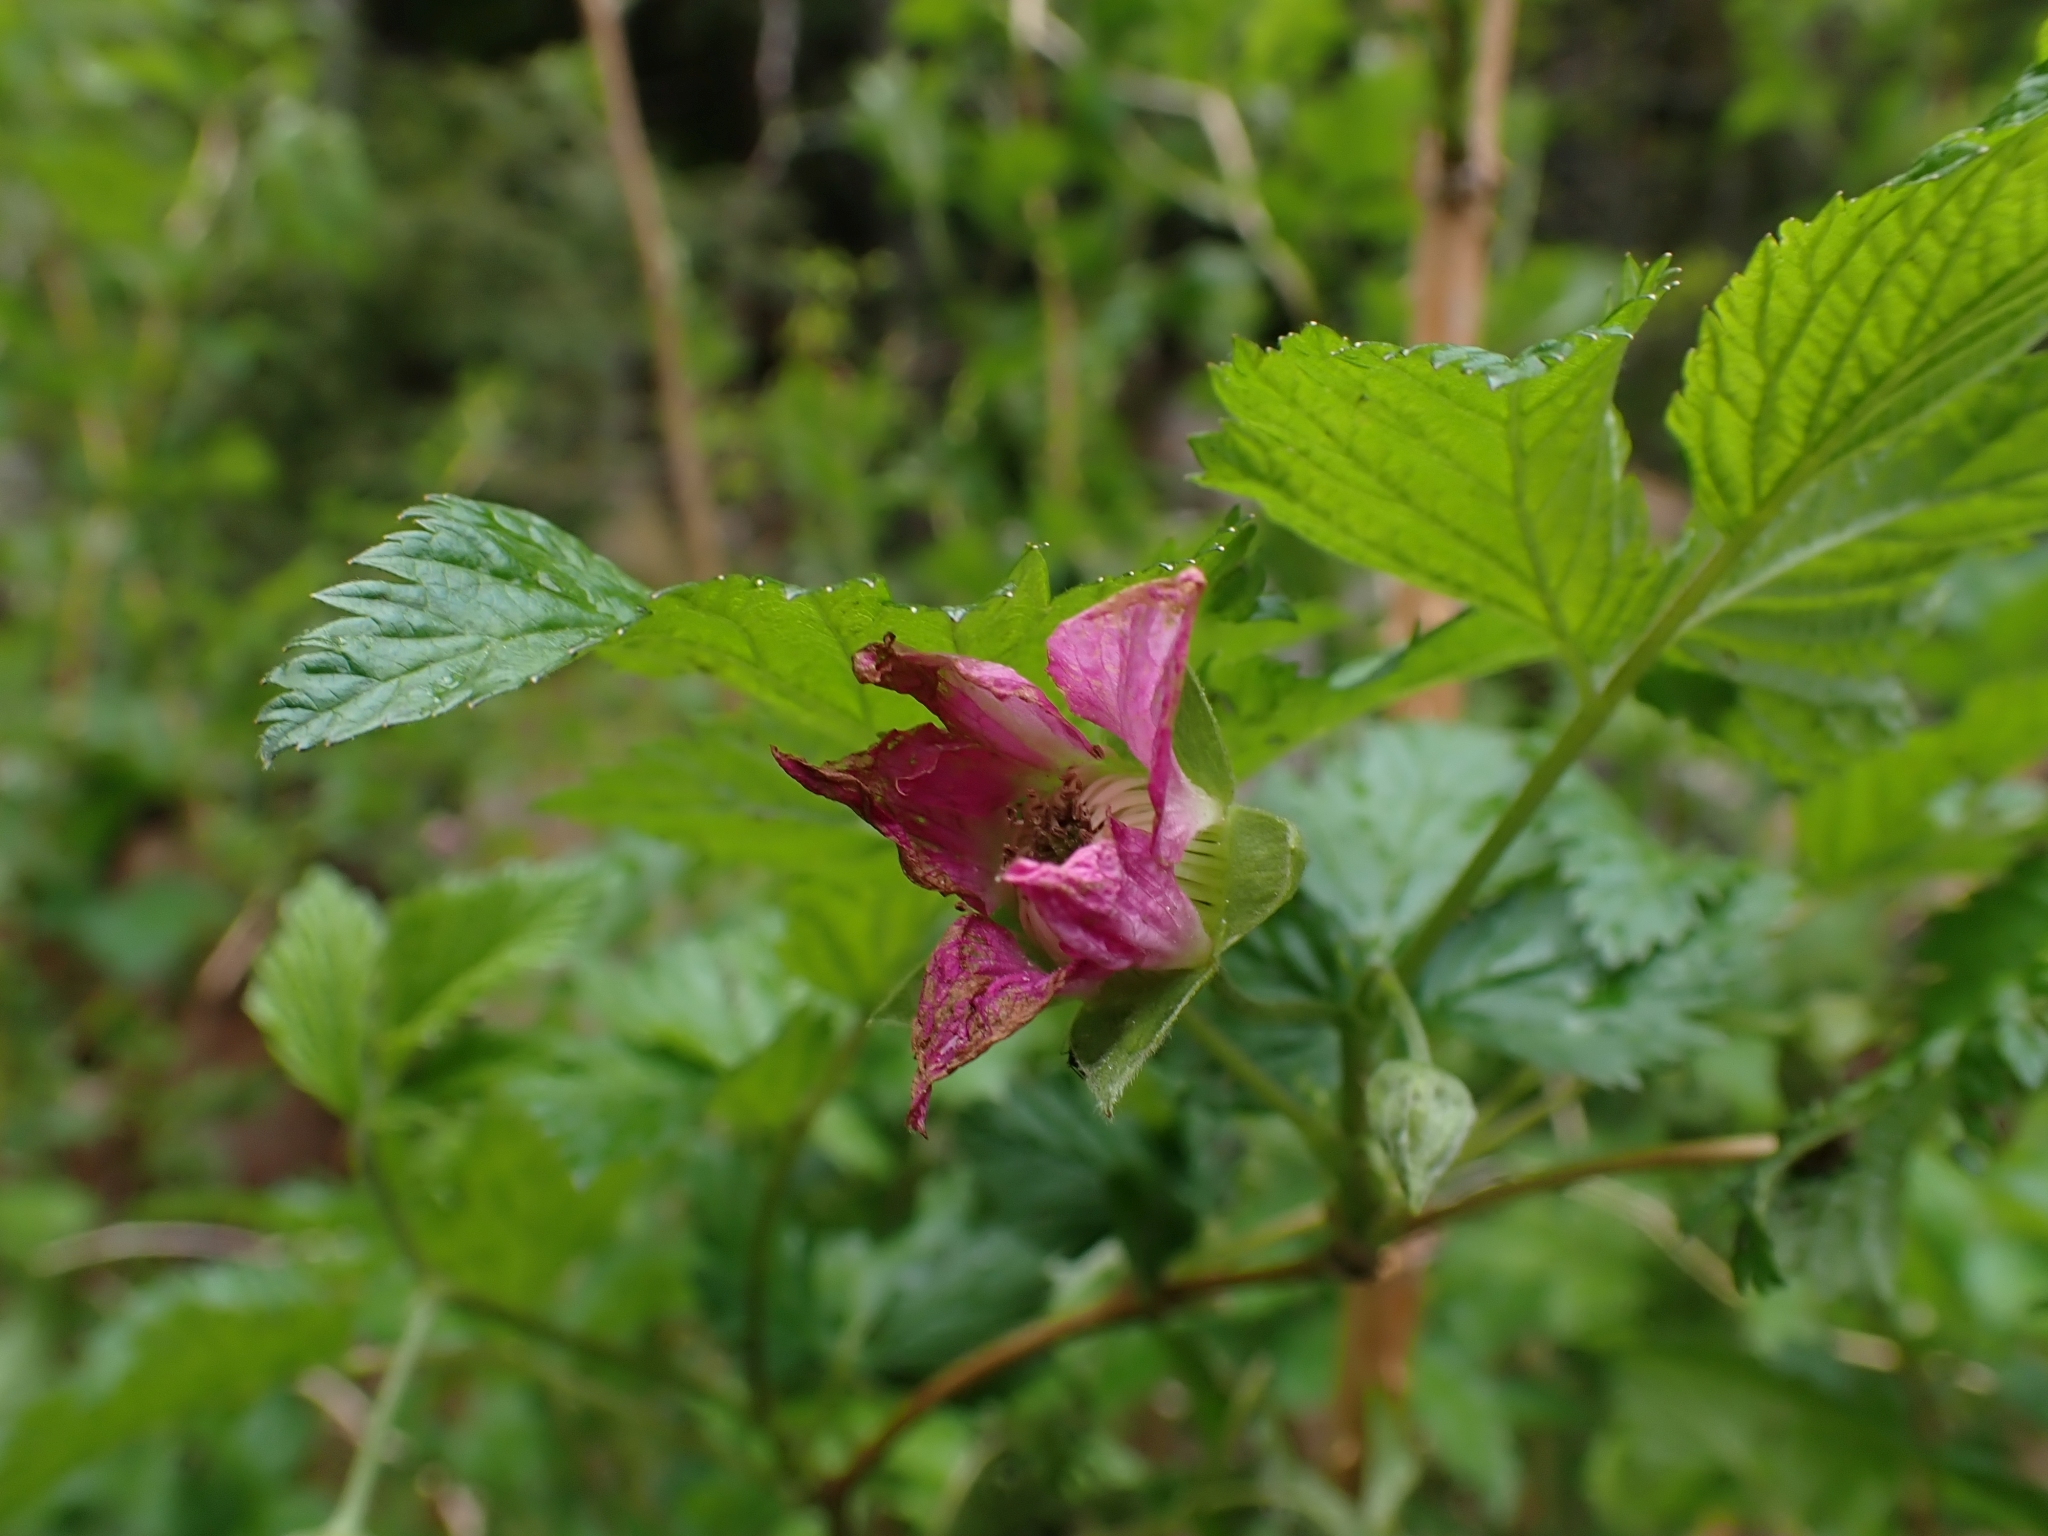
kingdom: Plantae
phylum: Tracheophyta
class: Magnoliopsida
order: Rosales
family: Rosaceae
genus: Rubus
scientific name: Rubus spectabilis
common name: Salmonberry
